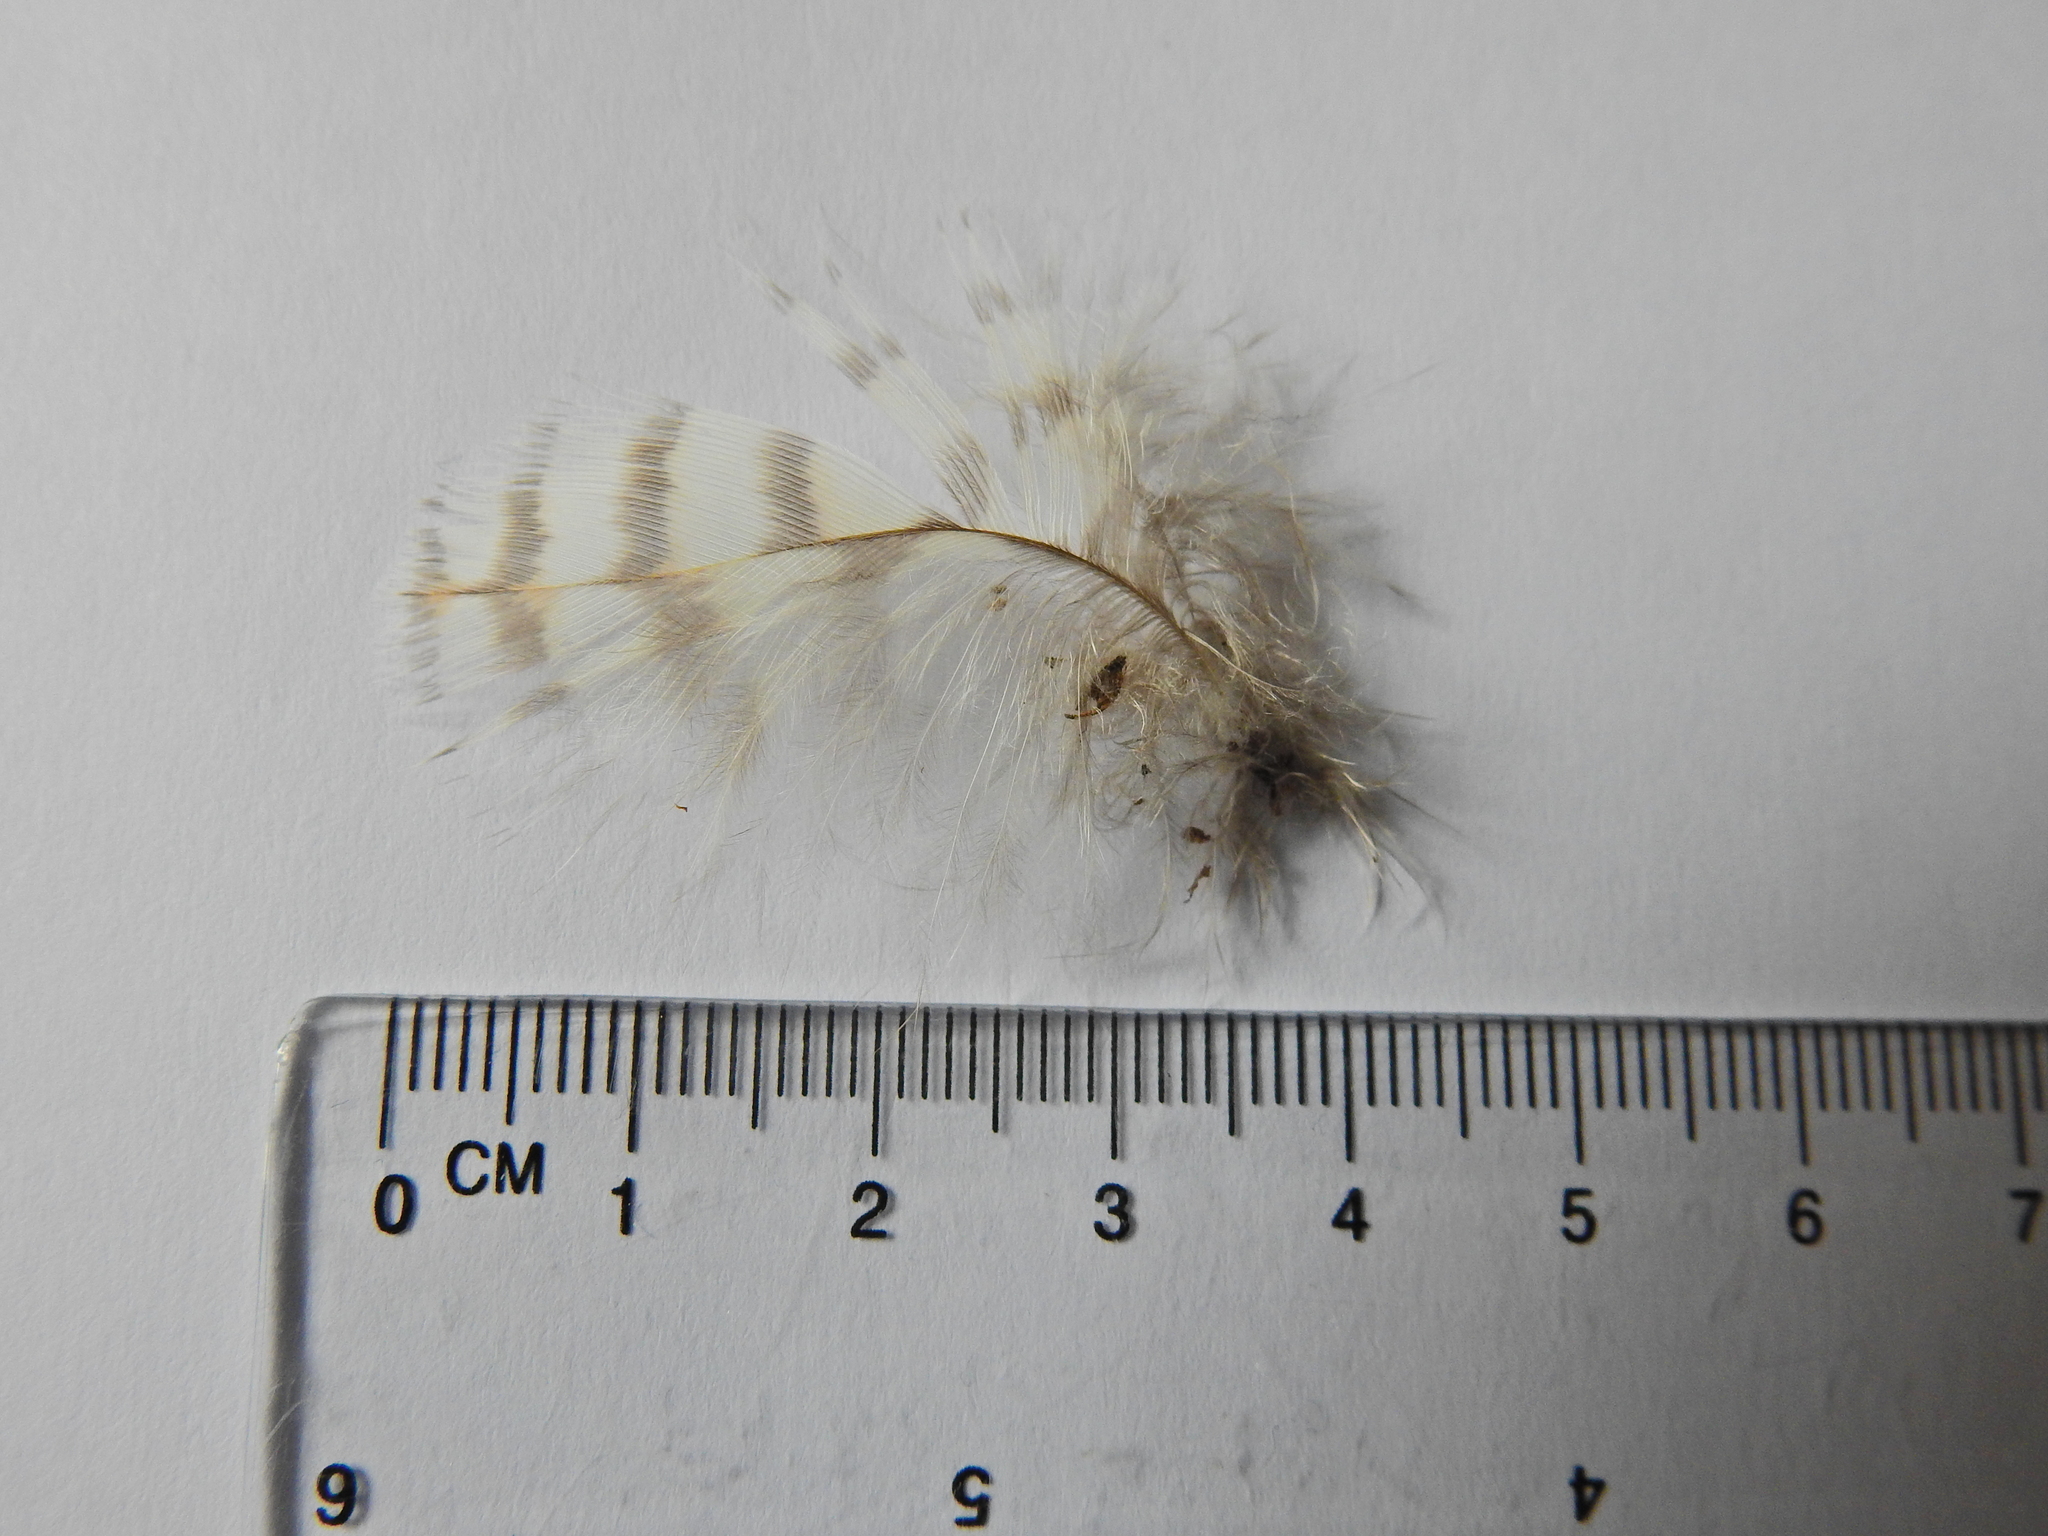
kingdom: Animalia
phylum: Chordata
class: Aves
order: Accipitriformes
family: Accipitridae
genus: Accipiter
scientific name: Accipiter nisus
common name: Eurasian sparrowhawk
